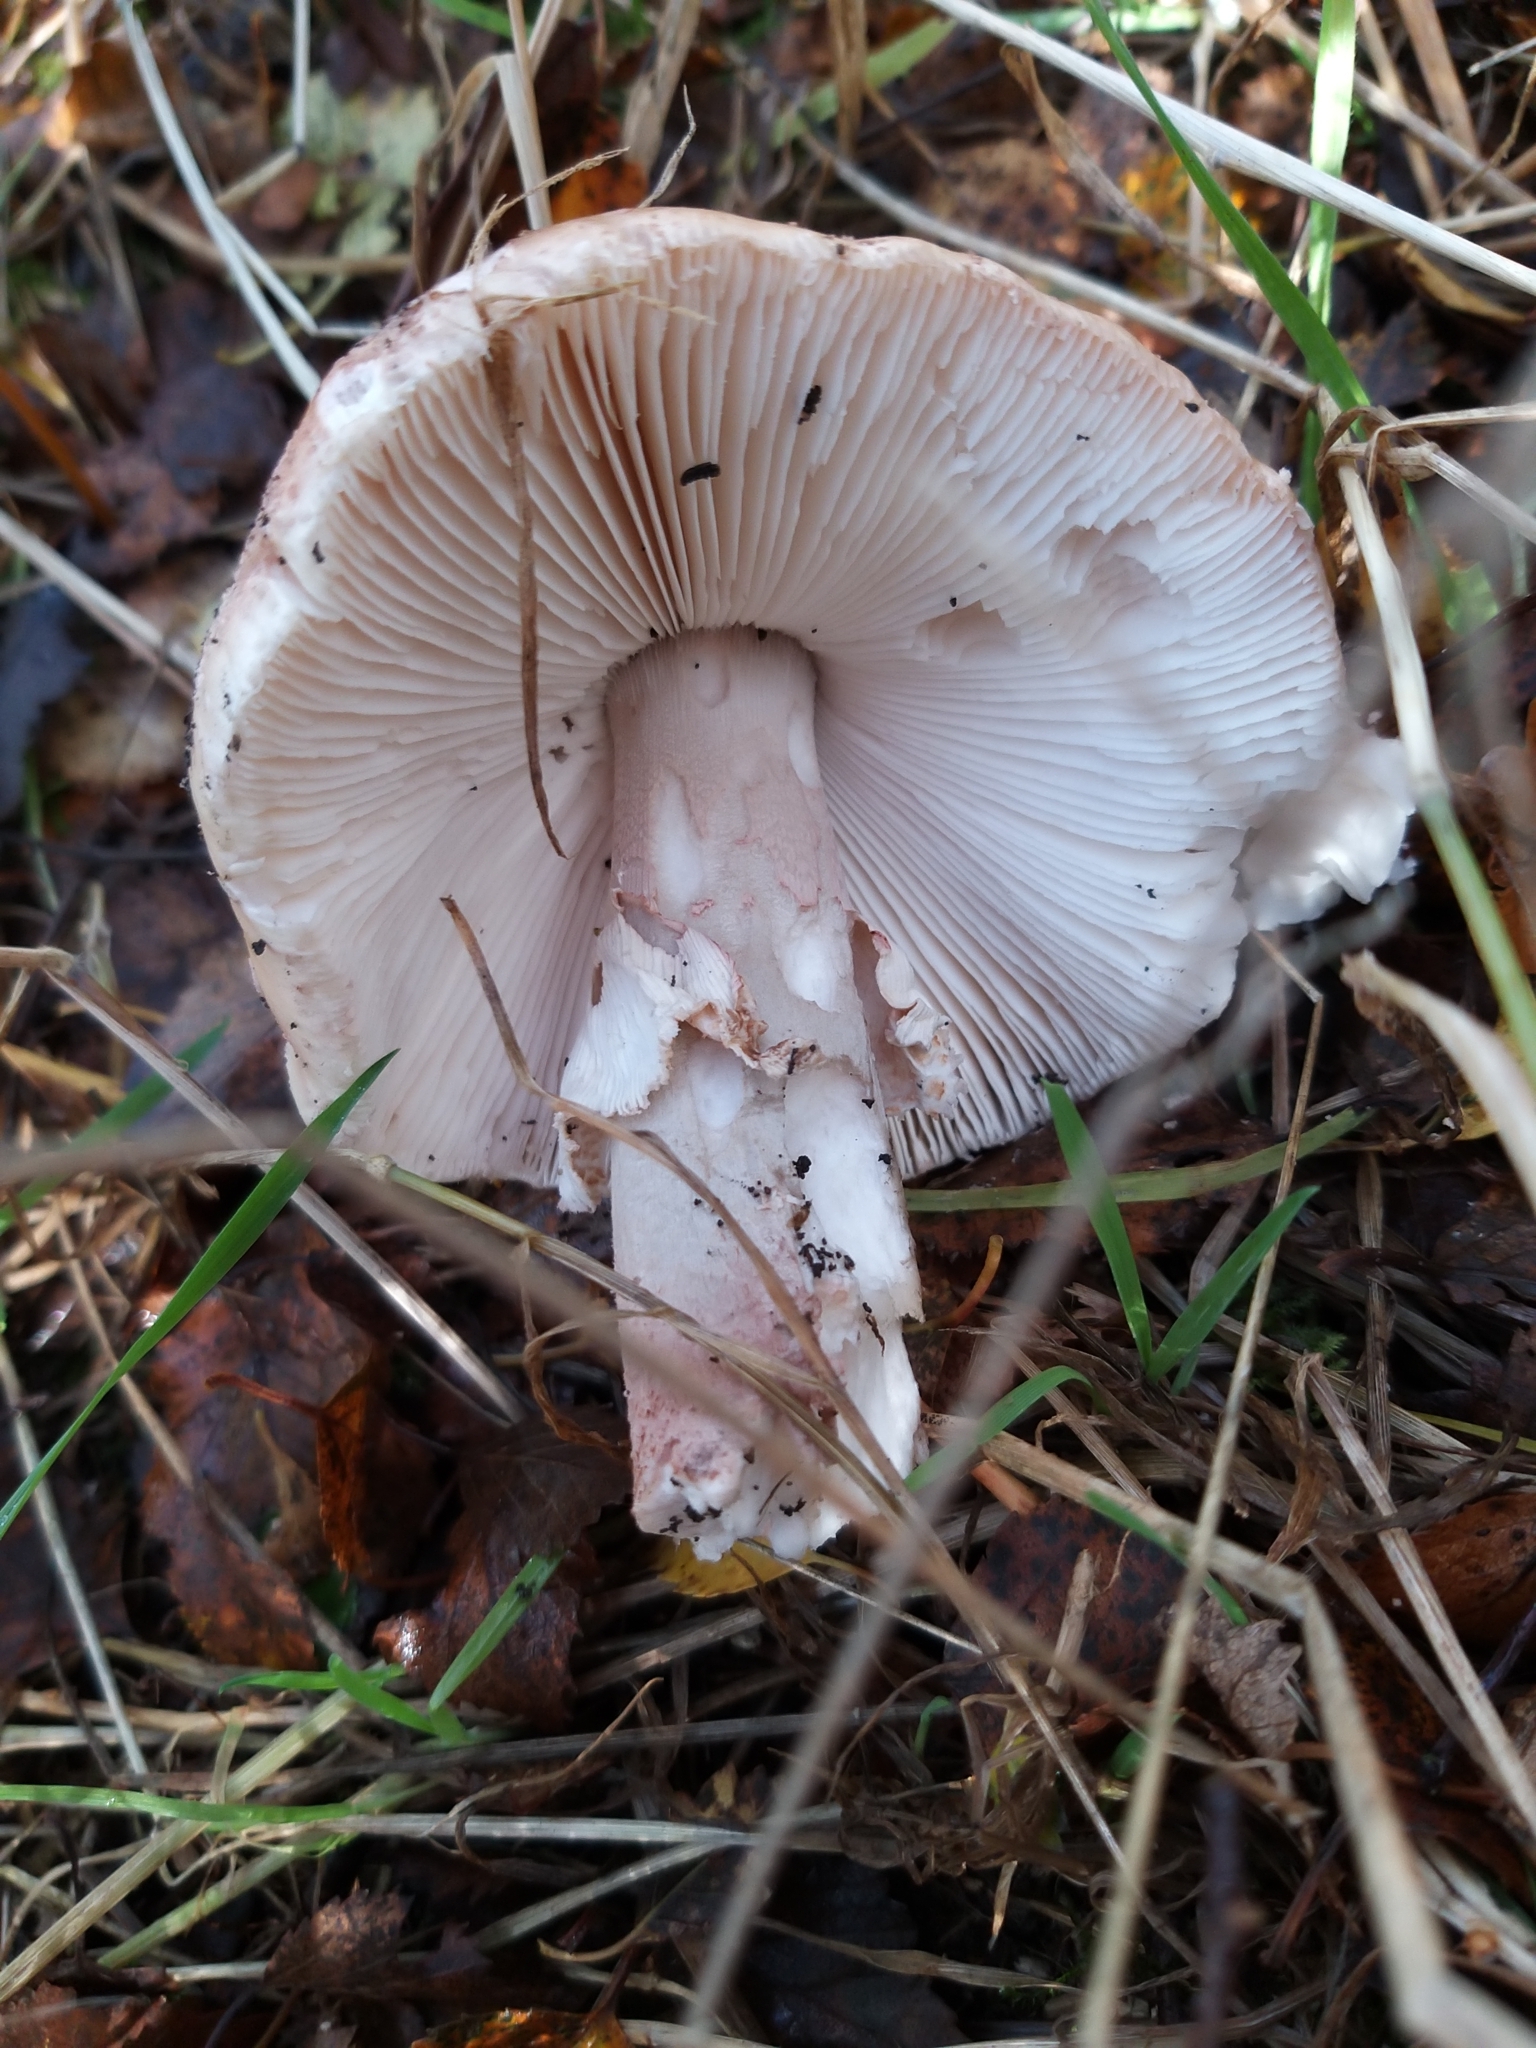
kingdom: Fungi
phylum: Basidiomycota
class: Agaricomycetes
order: Agaricales
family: Amanitaceae
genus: Amanita
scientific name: Amanita rubescens
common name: Blusher
